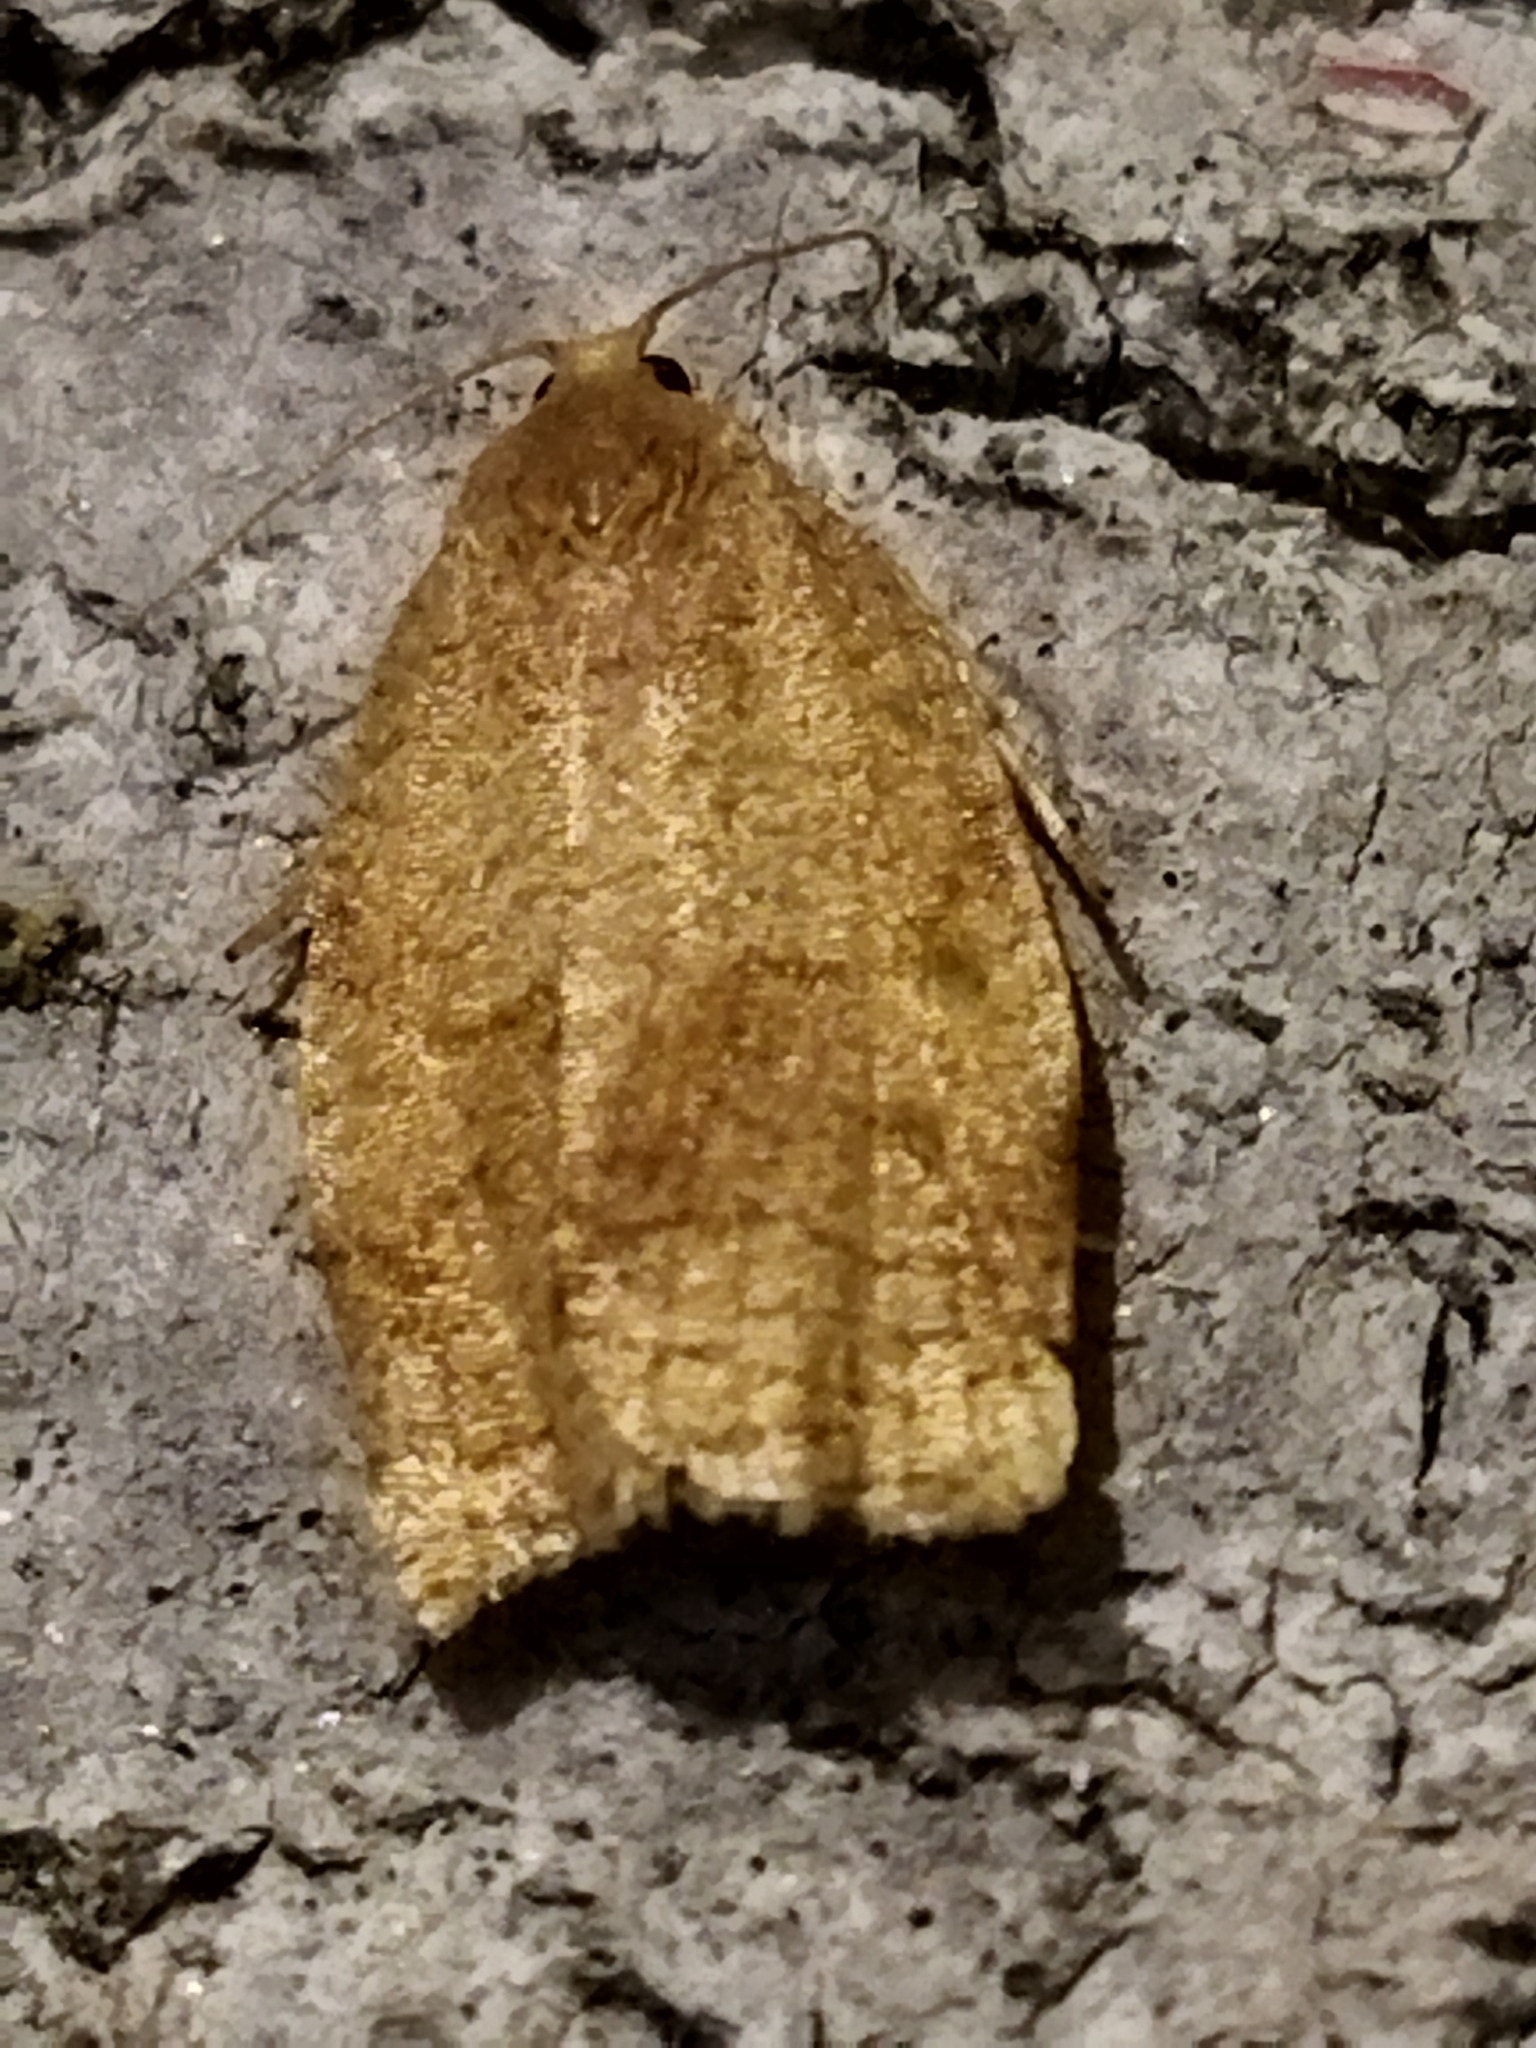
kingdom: Animalia
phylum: Arthropoda
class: Insecta
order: Lepidoptera
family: Tortricidae
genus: Archips
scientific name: Archips rosana
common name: Rose tortrix
